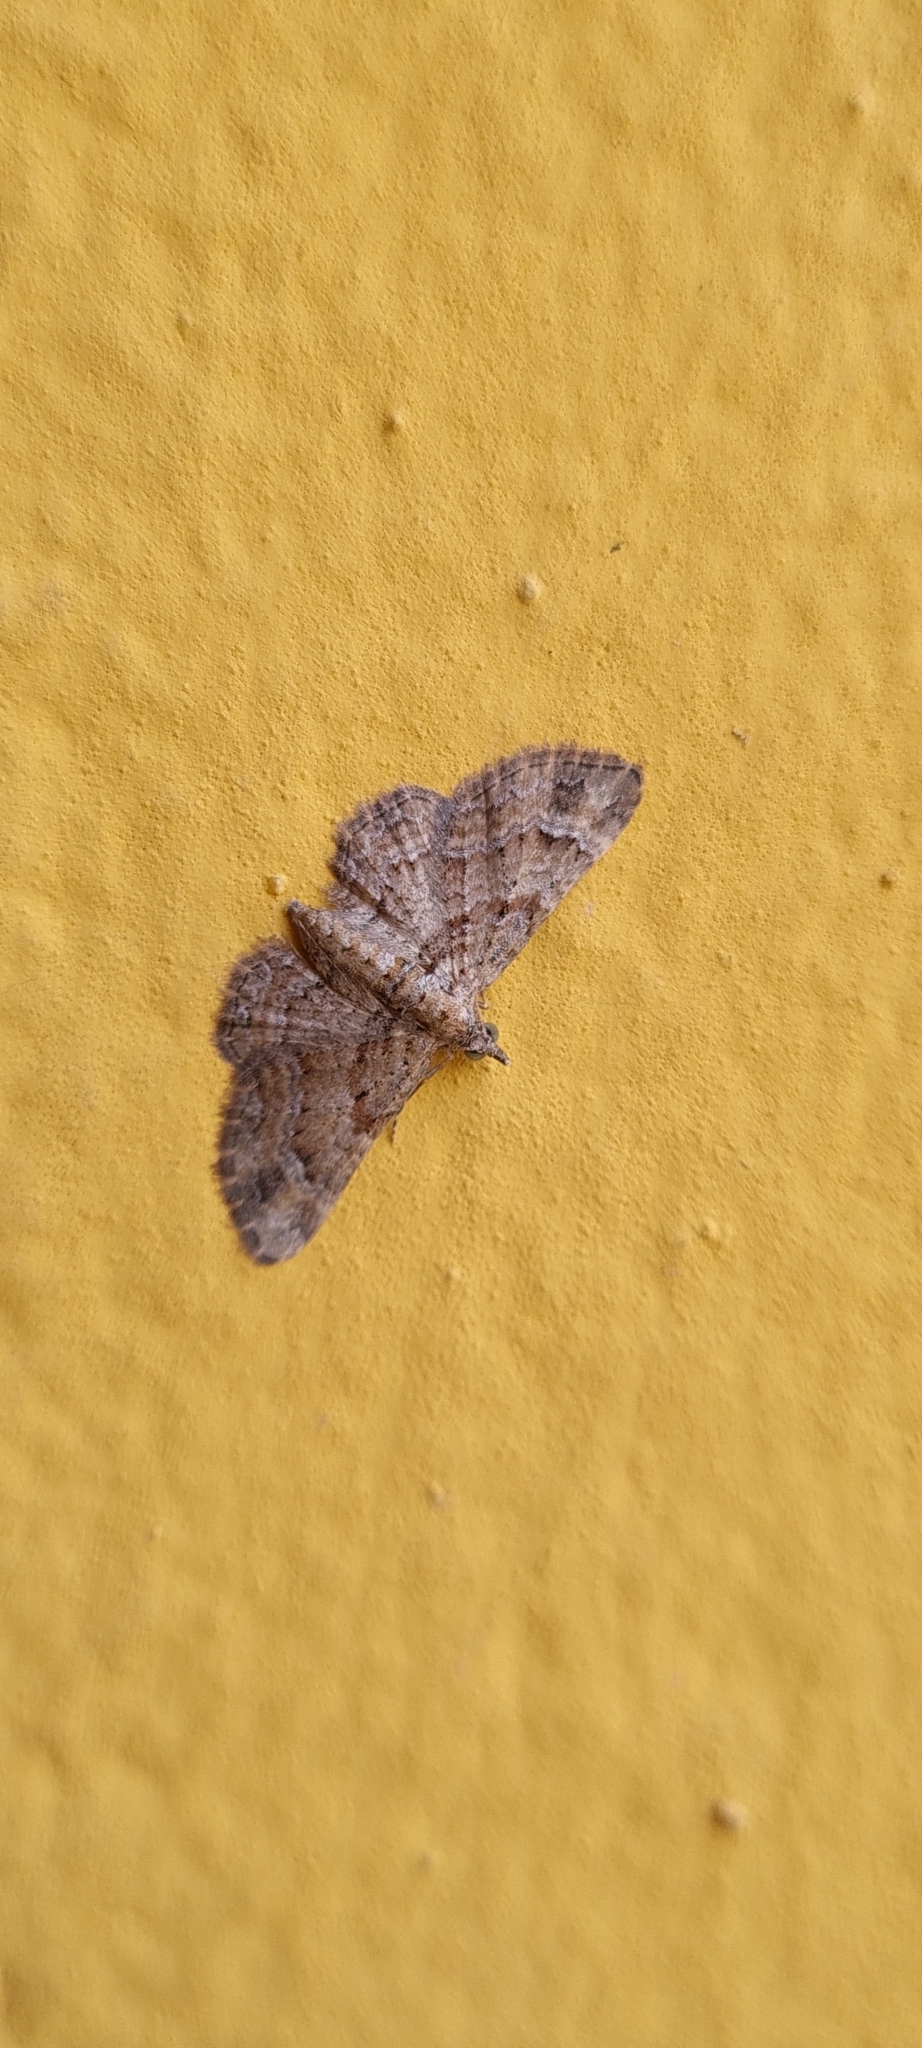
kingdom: Animalia
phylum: Arthropoda
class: Insecta
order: Lepidoptera
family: Geometridae
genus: Gymnoscelis
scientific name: Gymnoscelis rufifasciata
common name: Double-striped pug
